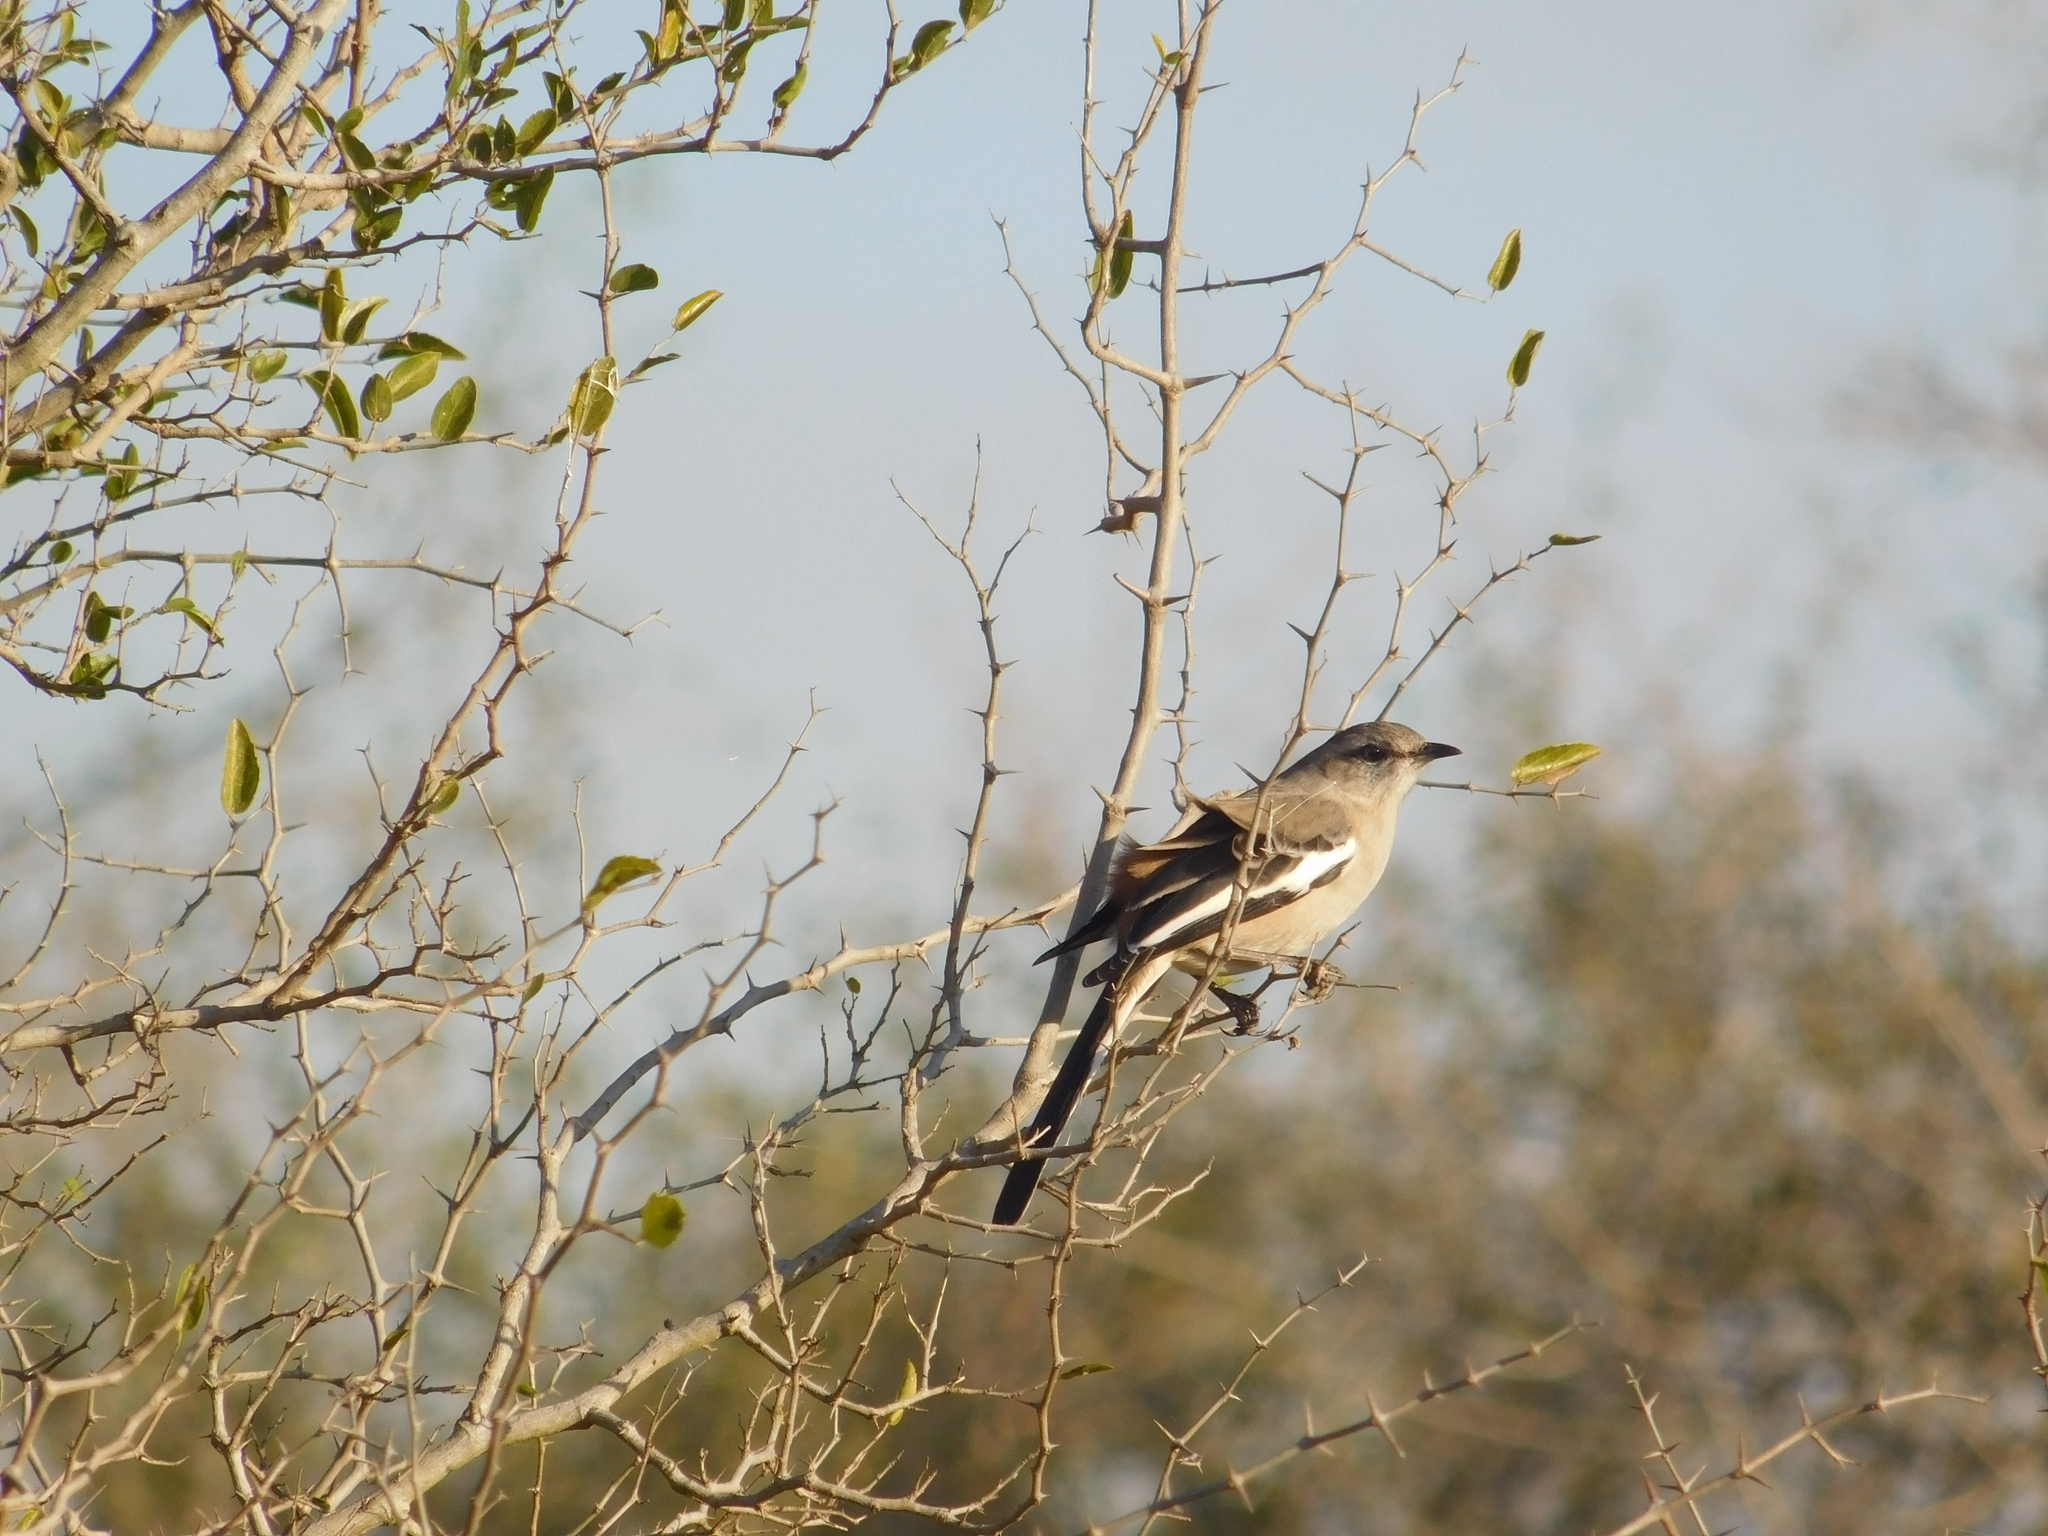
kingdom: Animalia
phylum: Chordata
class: Aves
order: Passeriformes
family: Mimidae
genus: Mimus
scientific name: Mimus triurus
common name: White-banded mockingbird
